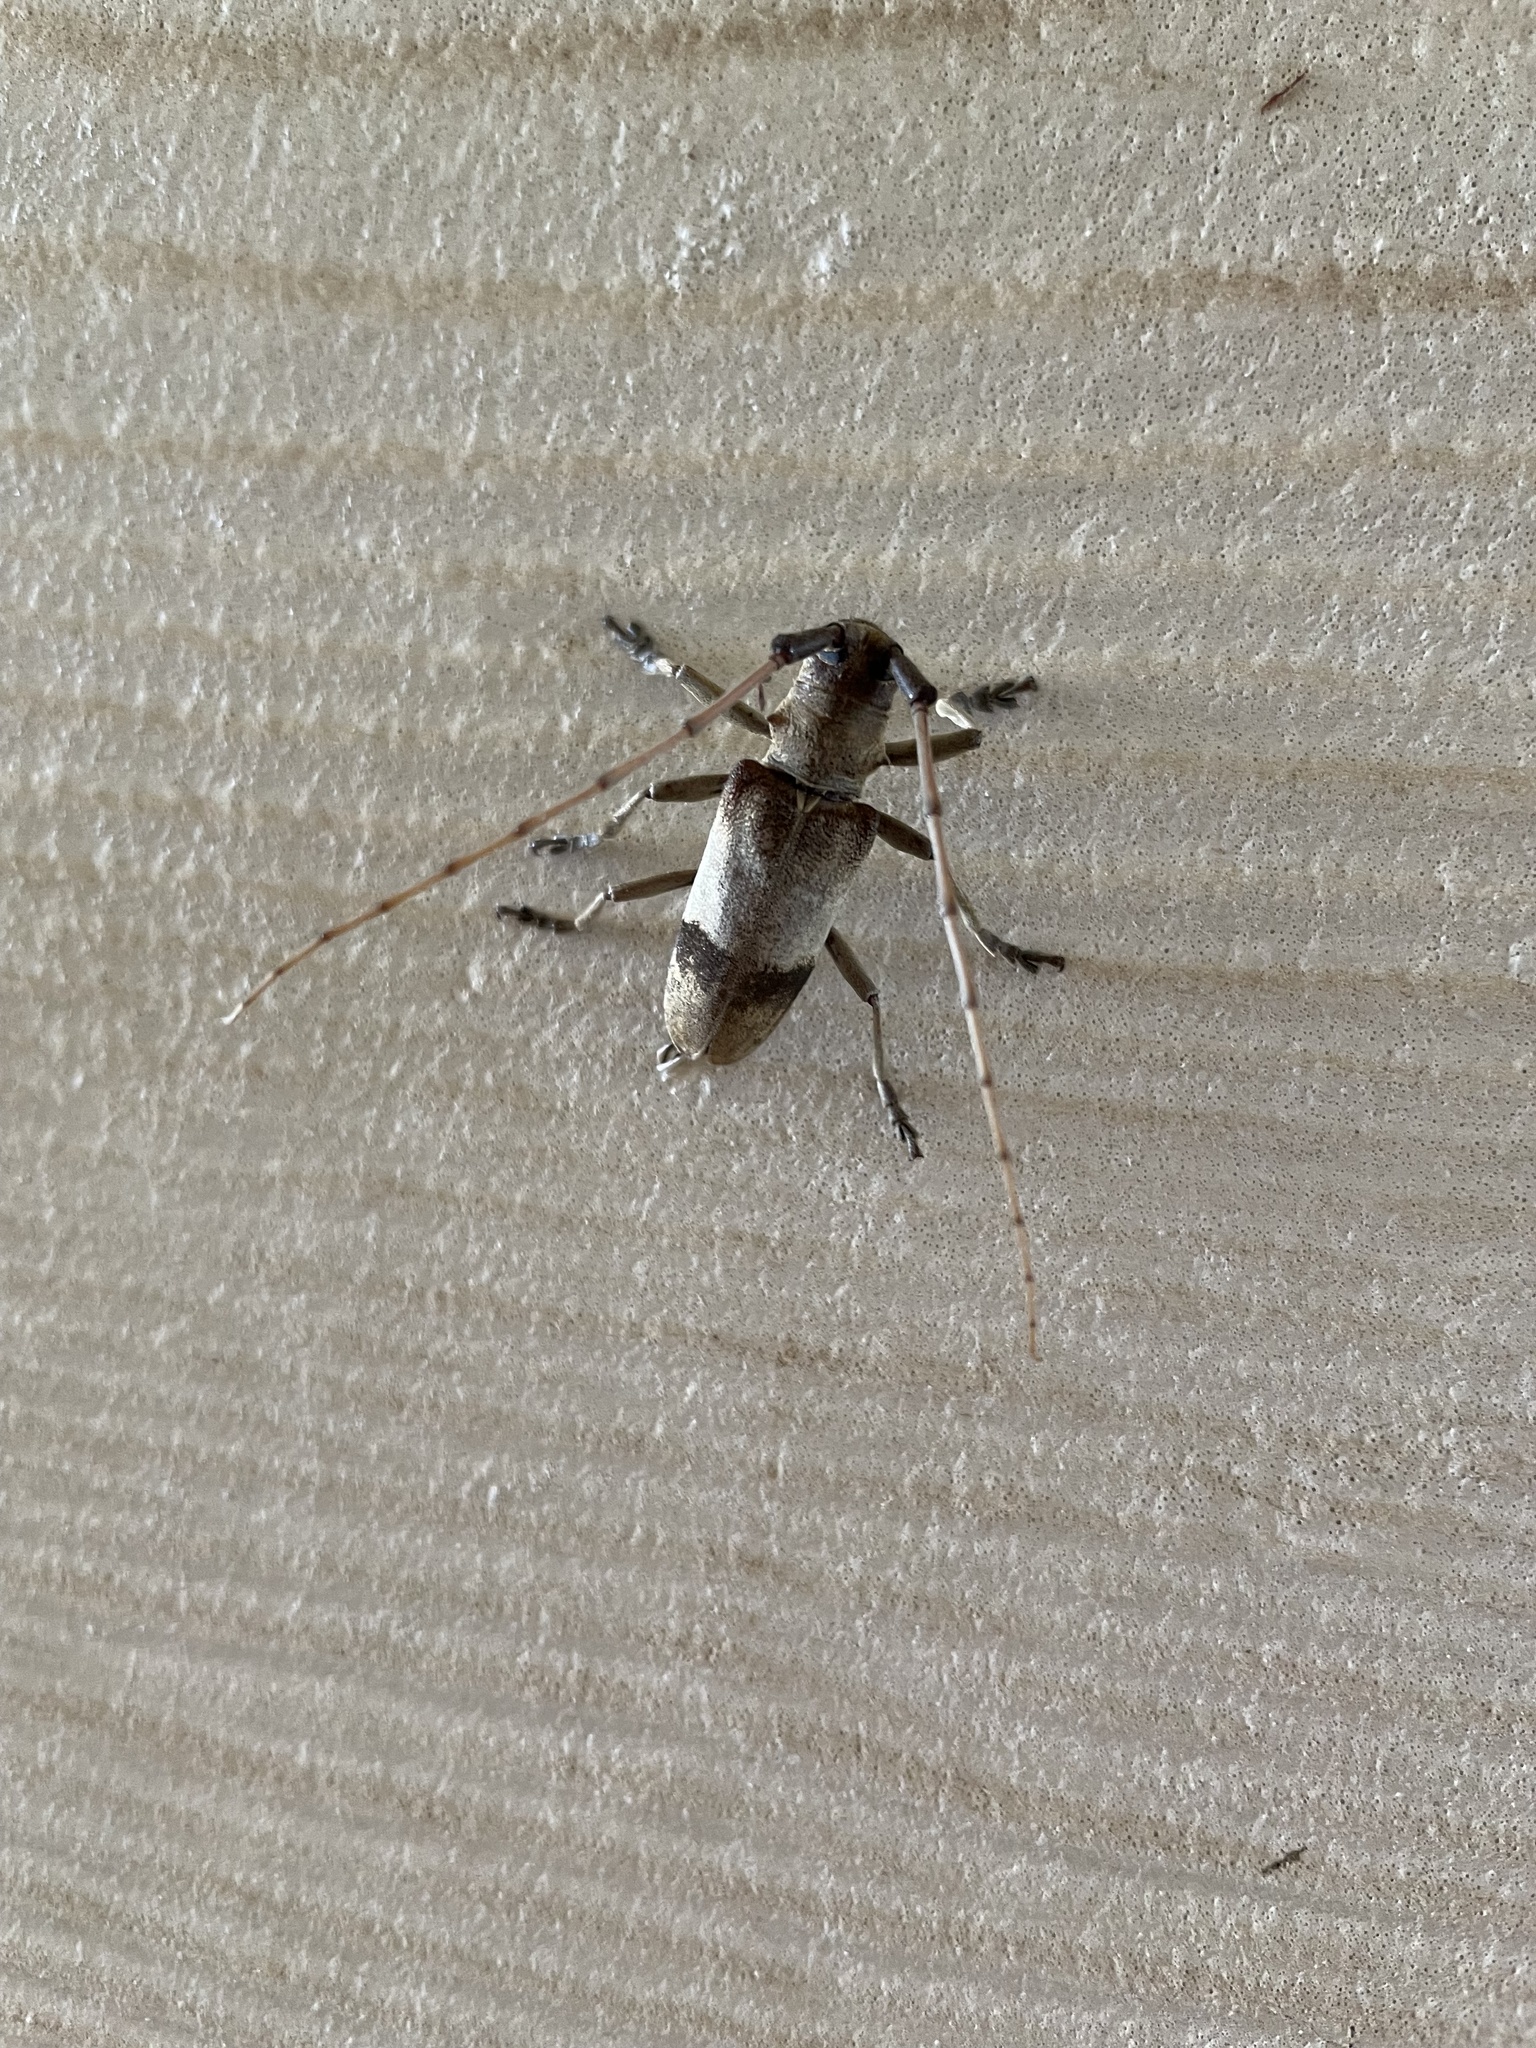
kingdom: Animalia
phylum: Arthropoda
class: Insecta
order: Coleoptera
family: Cerambycidae
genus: Goes
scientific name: Goes pulcher
